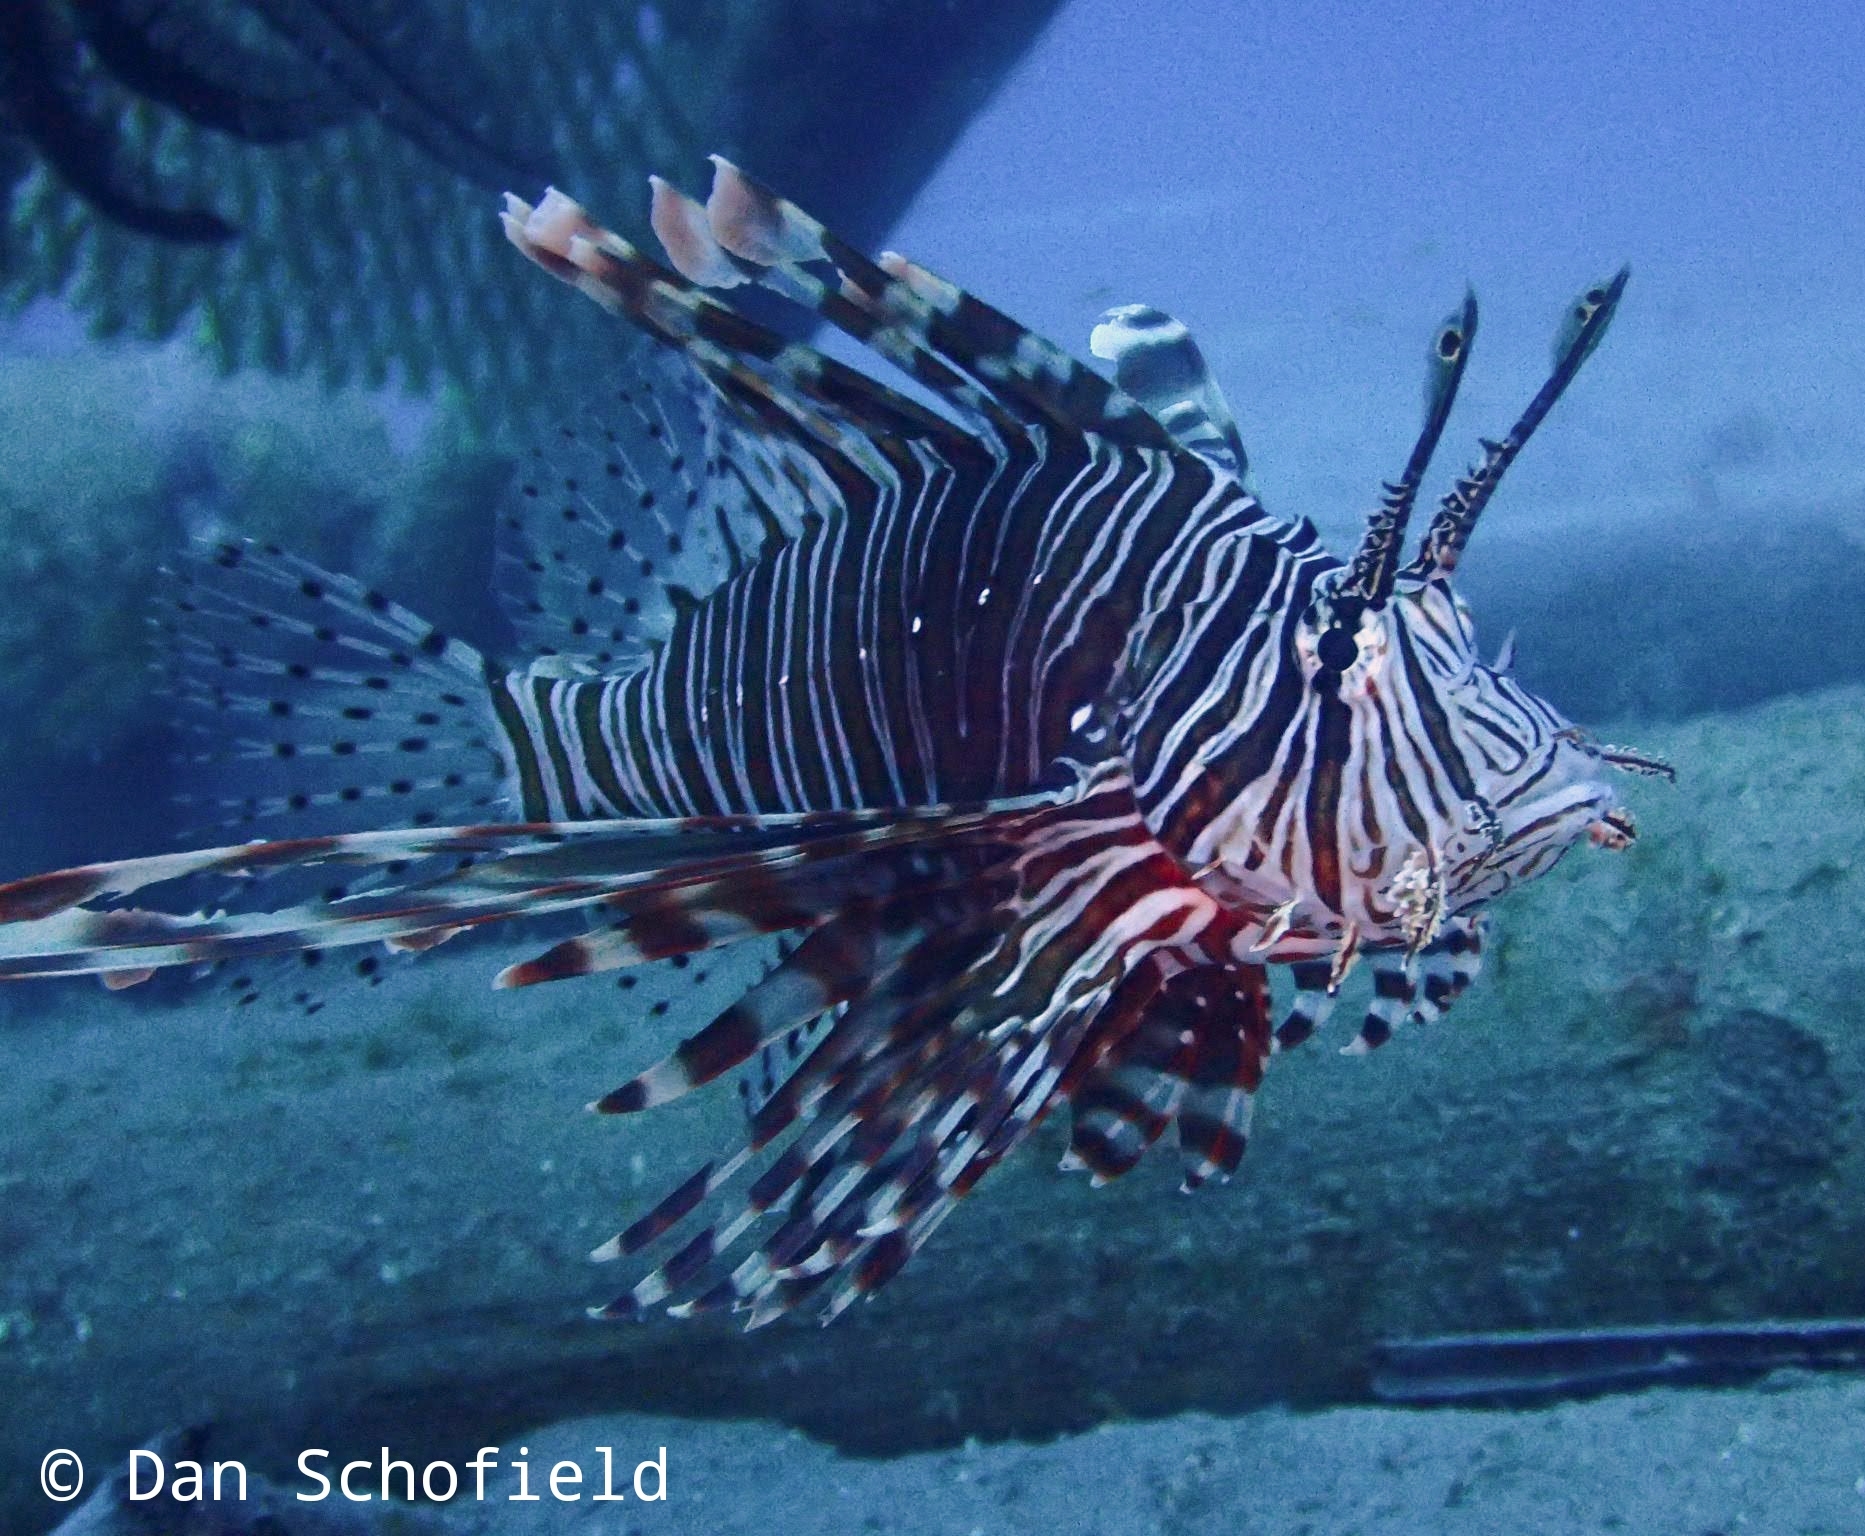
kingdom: Animalia
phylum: Chordata
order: Scorpaeniformes
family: Scorpaenidae
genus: Pterois
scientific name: Pterois volitans
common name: Lionfish
